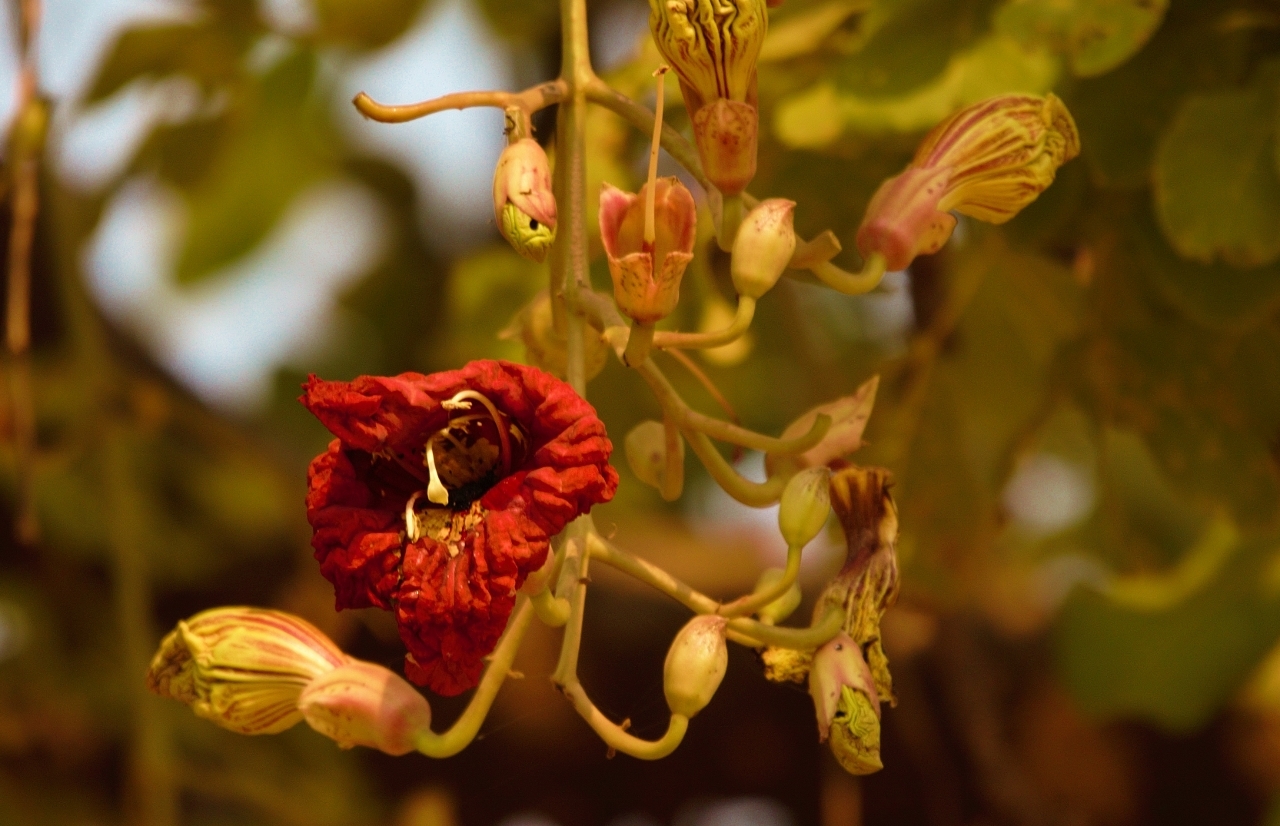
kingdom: Plantae
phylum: Tracheophyta
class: Magnoliopsida
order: Lamiales
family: Bignoniaceae
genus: Kigelia
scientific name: Kigelia africana
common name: Sausage tree
